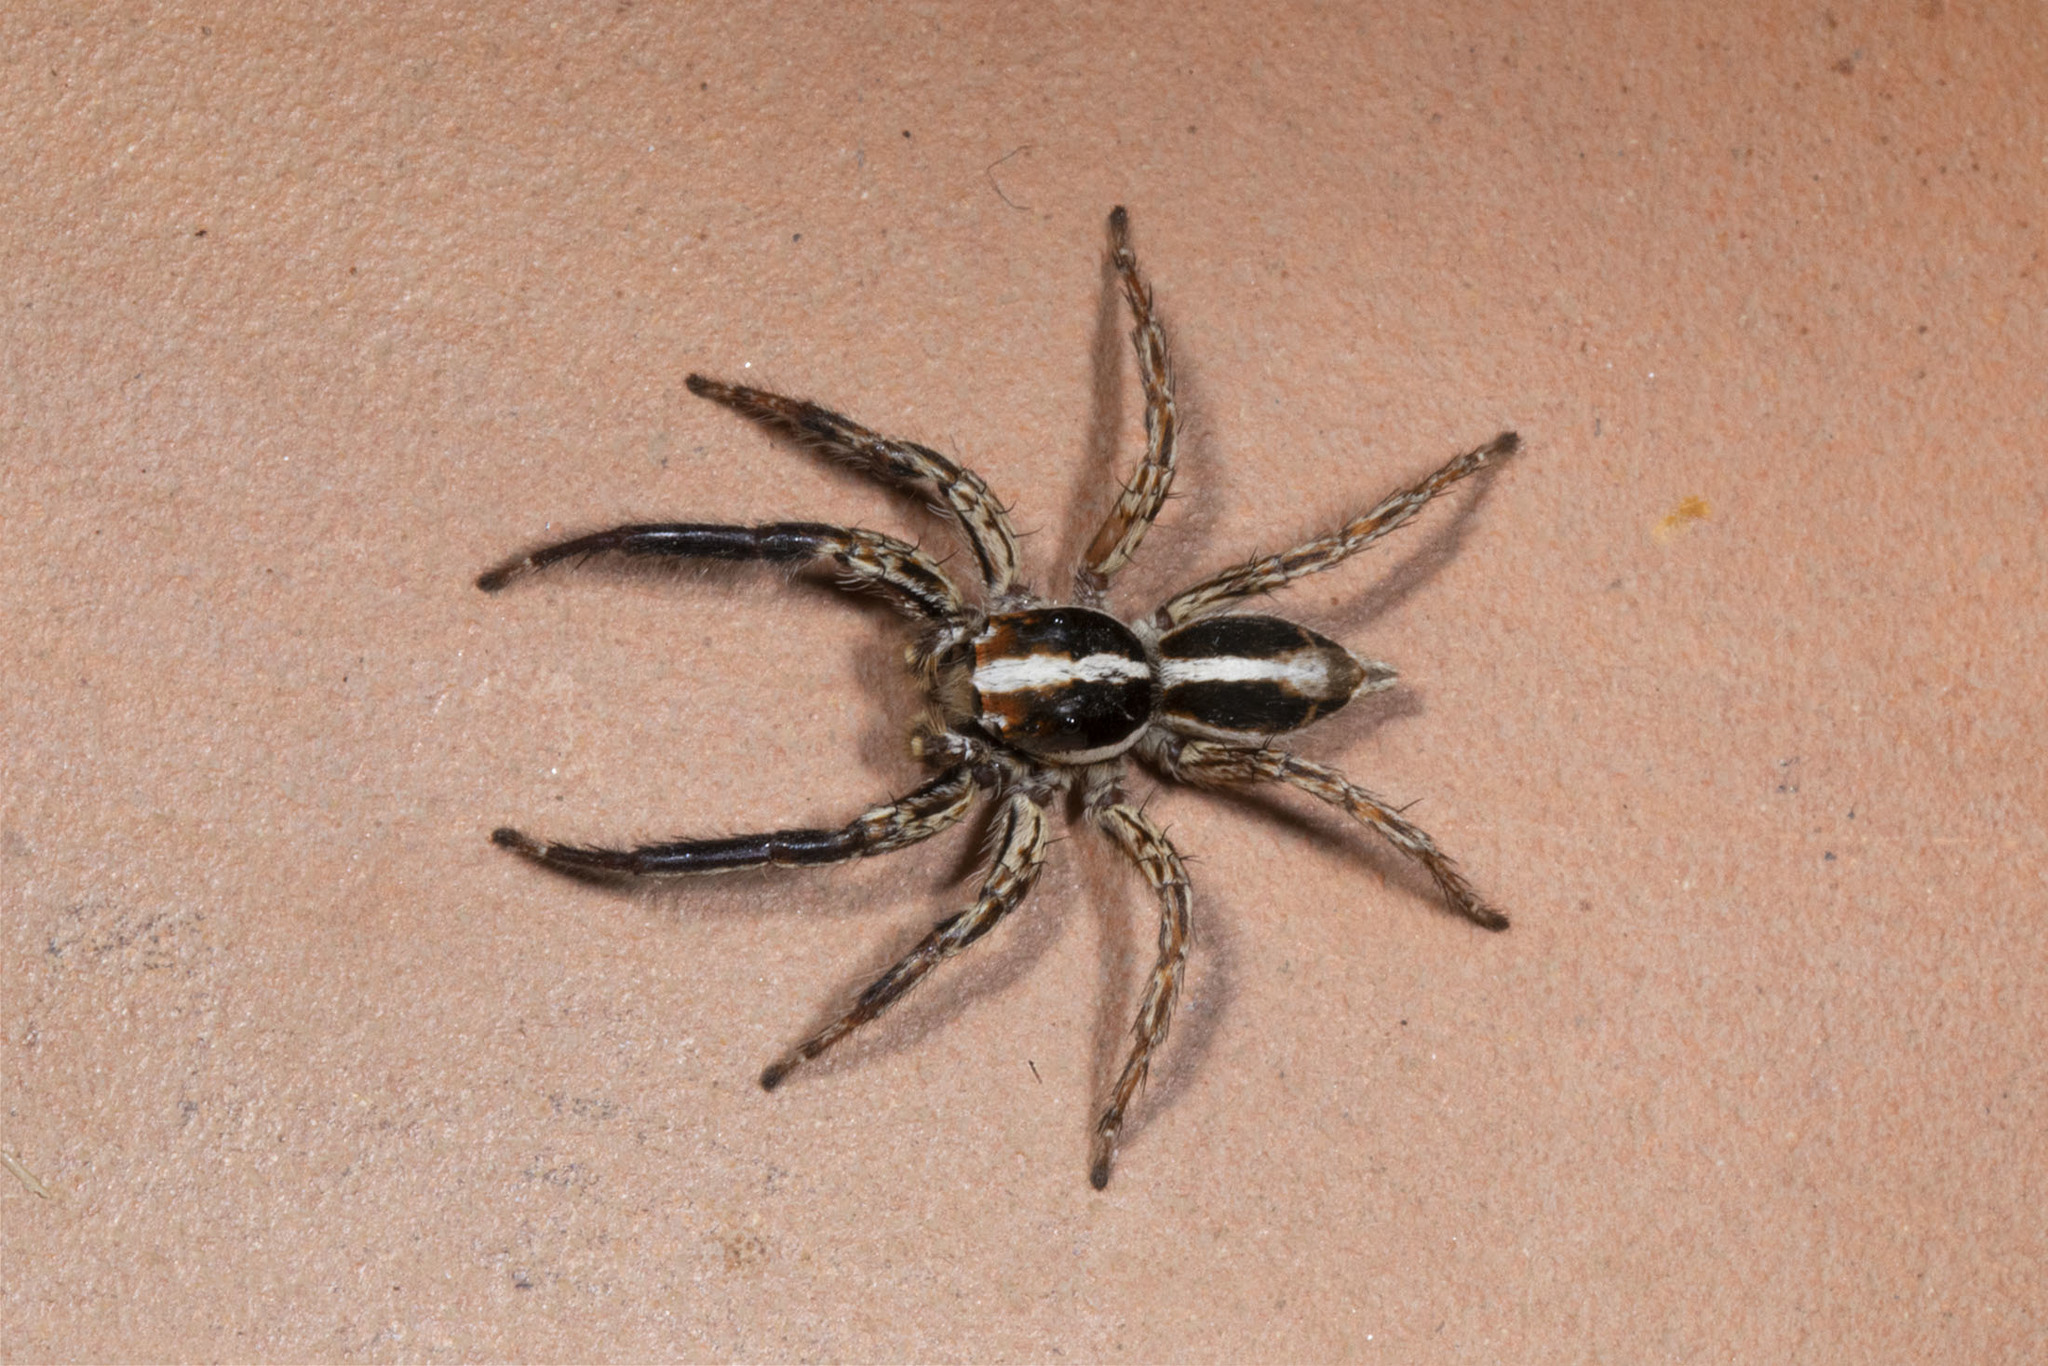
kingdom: Animalia
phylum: Arthropoda
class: Arachnida
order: Araneae
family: Salticidae
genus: Plexippus
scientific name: Plexippus paykulli
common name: Pantropical jumper
